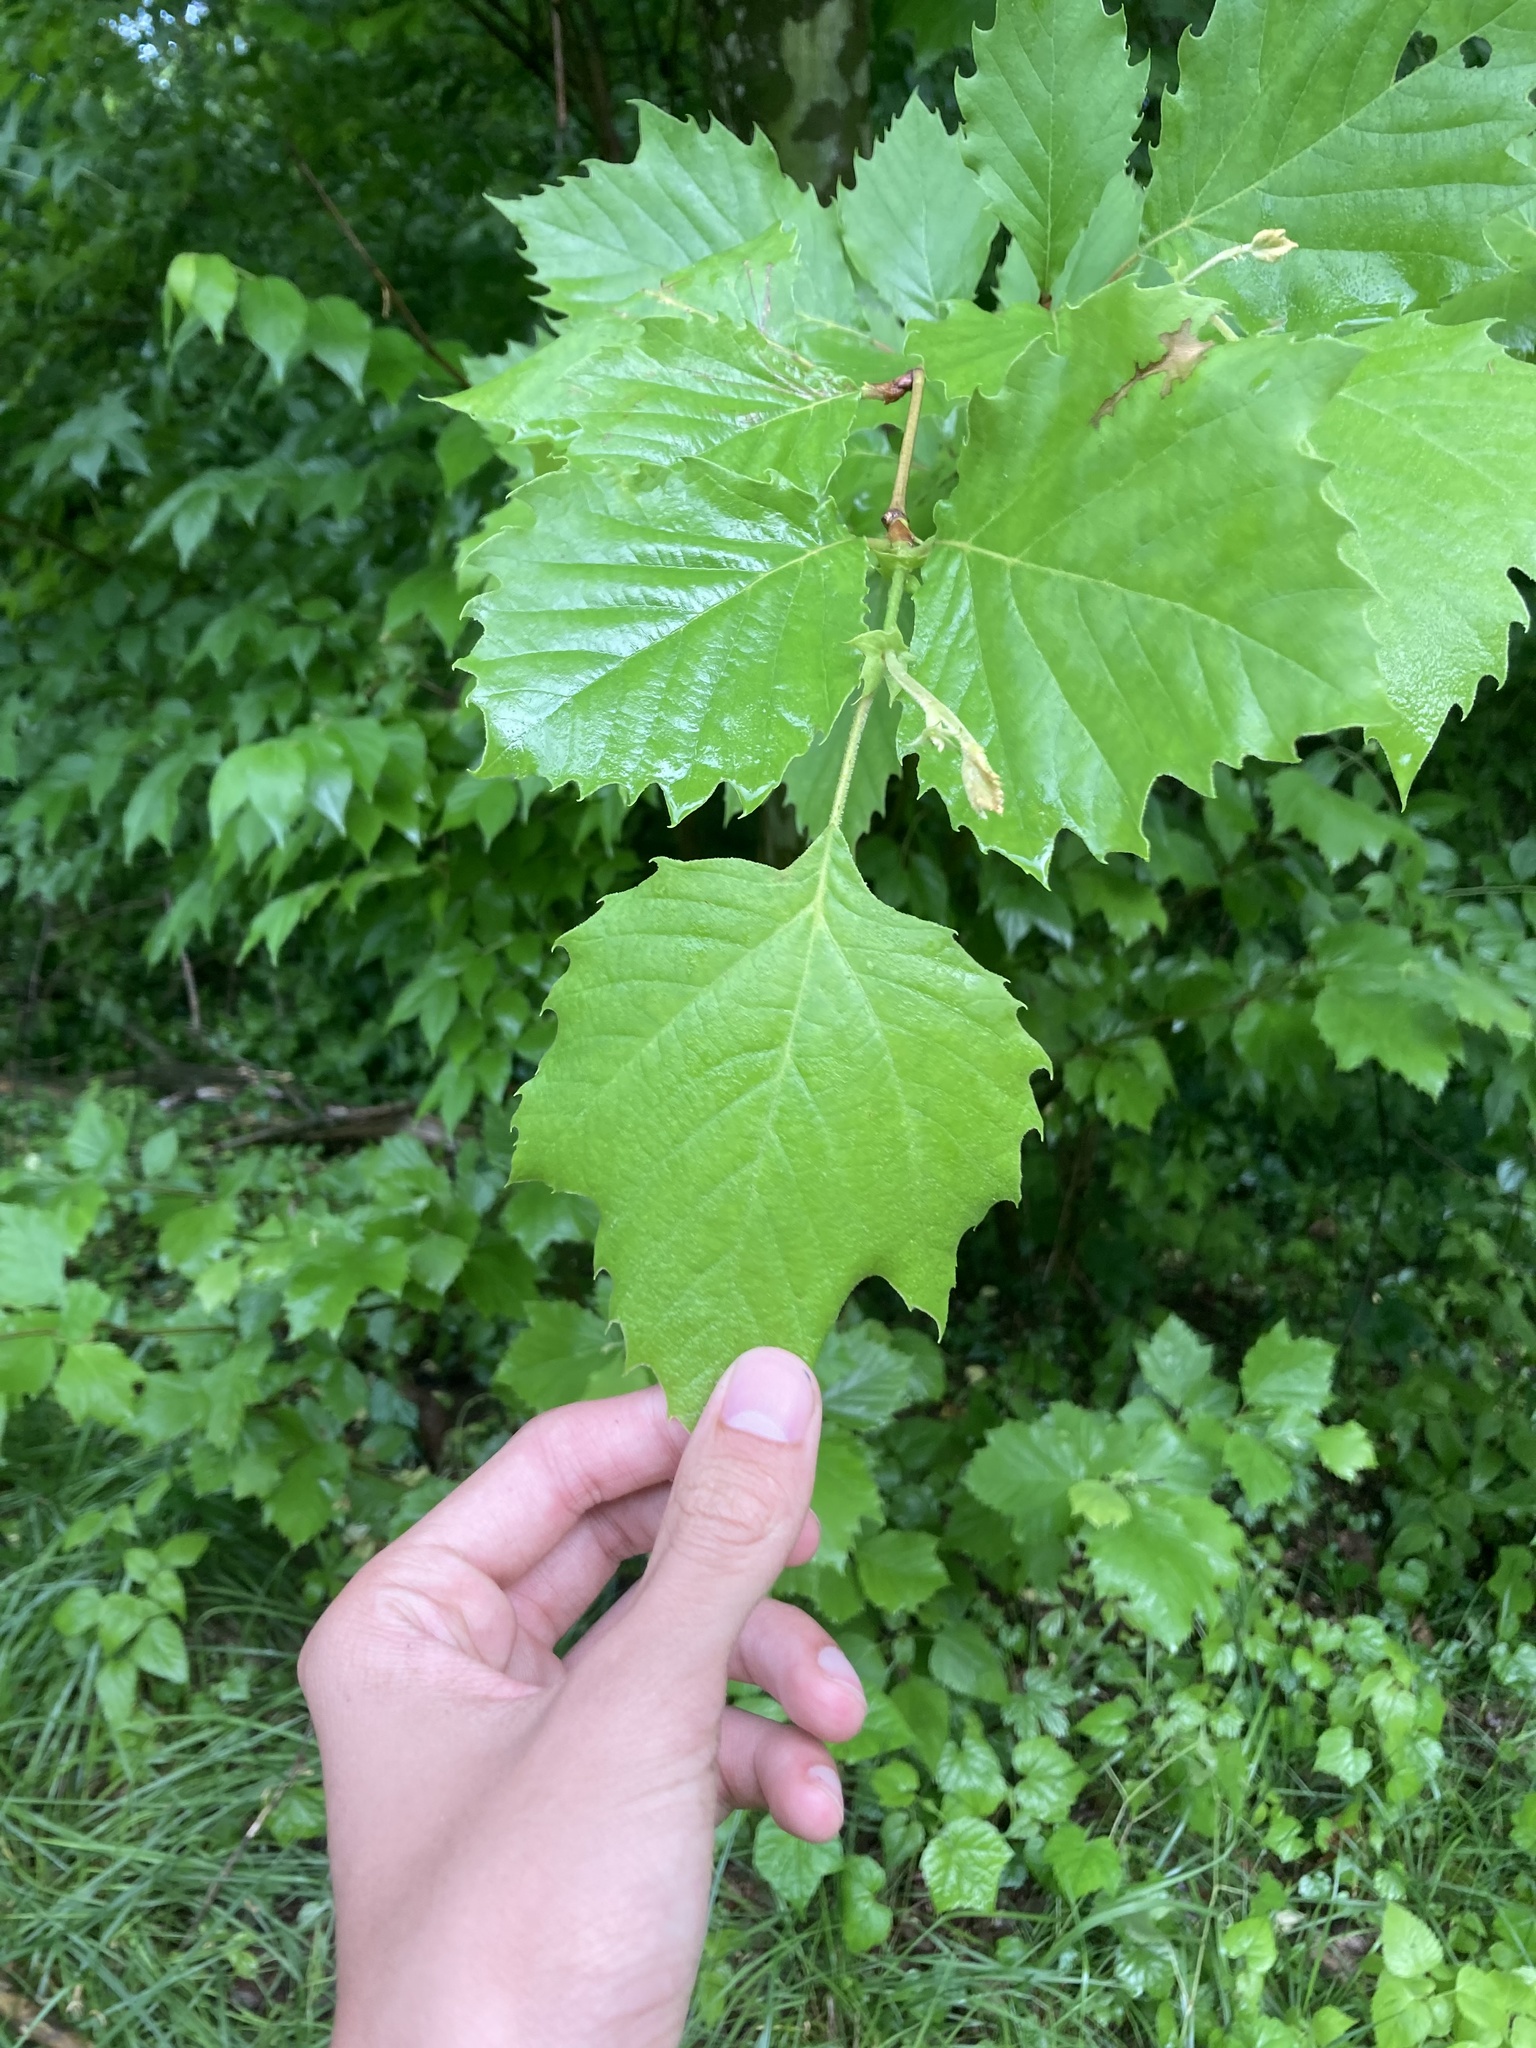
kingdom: Plantae
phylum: Tracheophyta
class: Magnoliopsida
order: Proteales
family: Platanaceae
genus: Platanus
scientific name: Platanus occidentalis
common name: American sycamore
